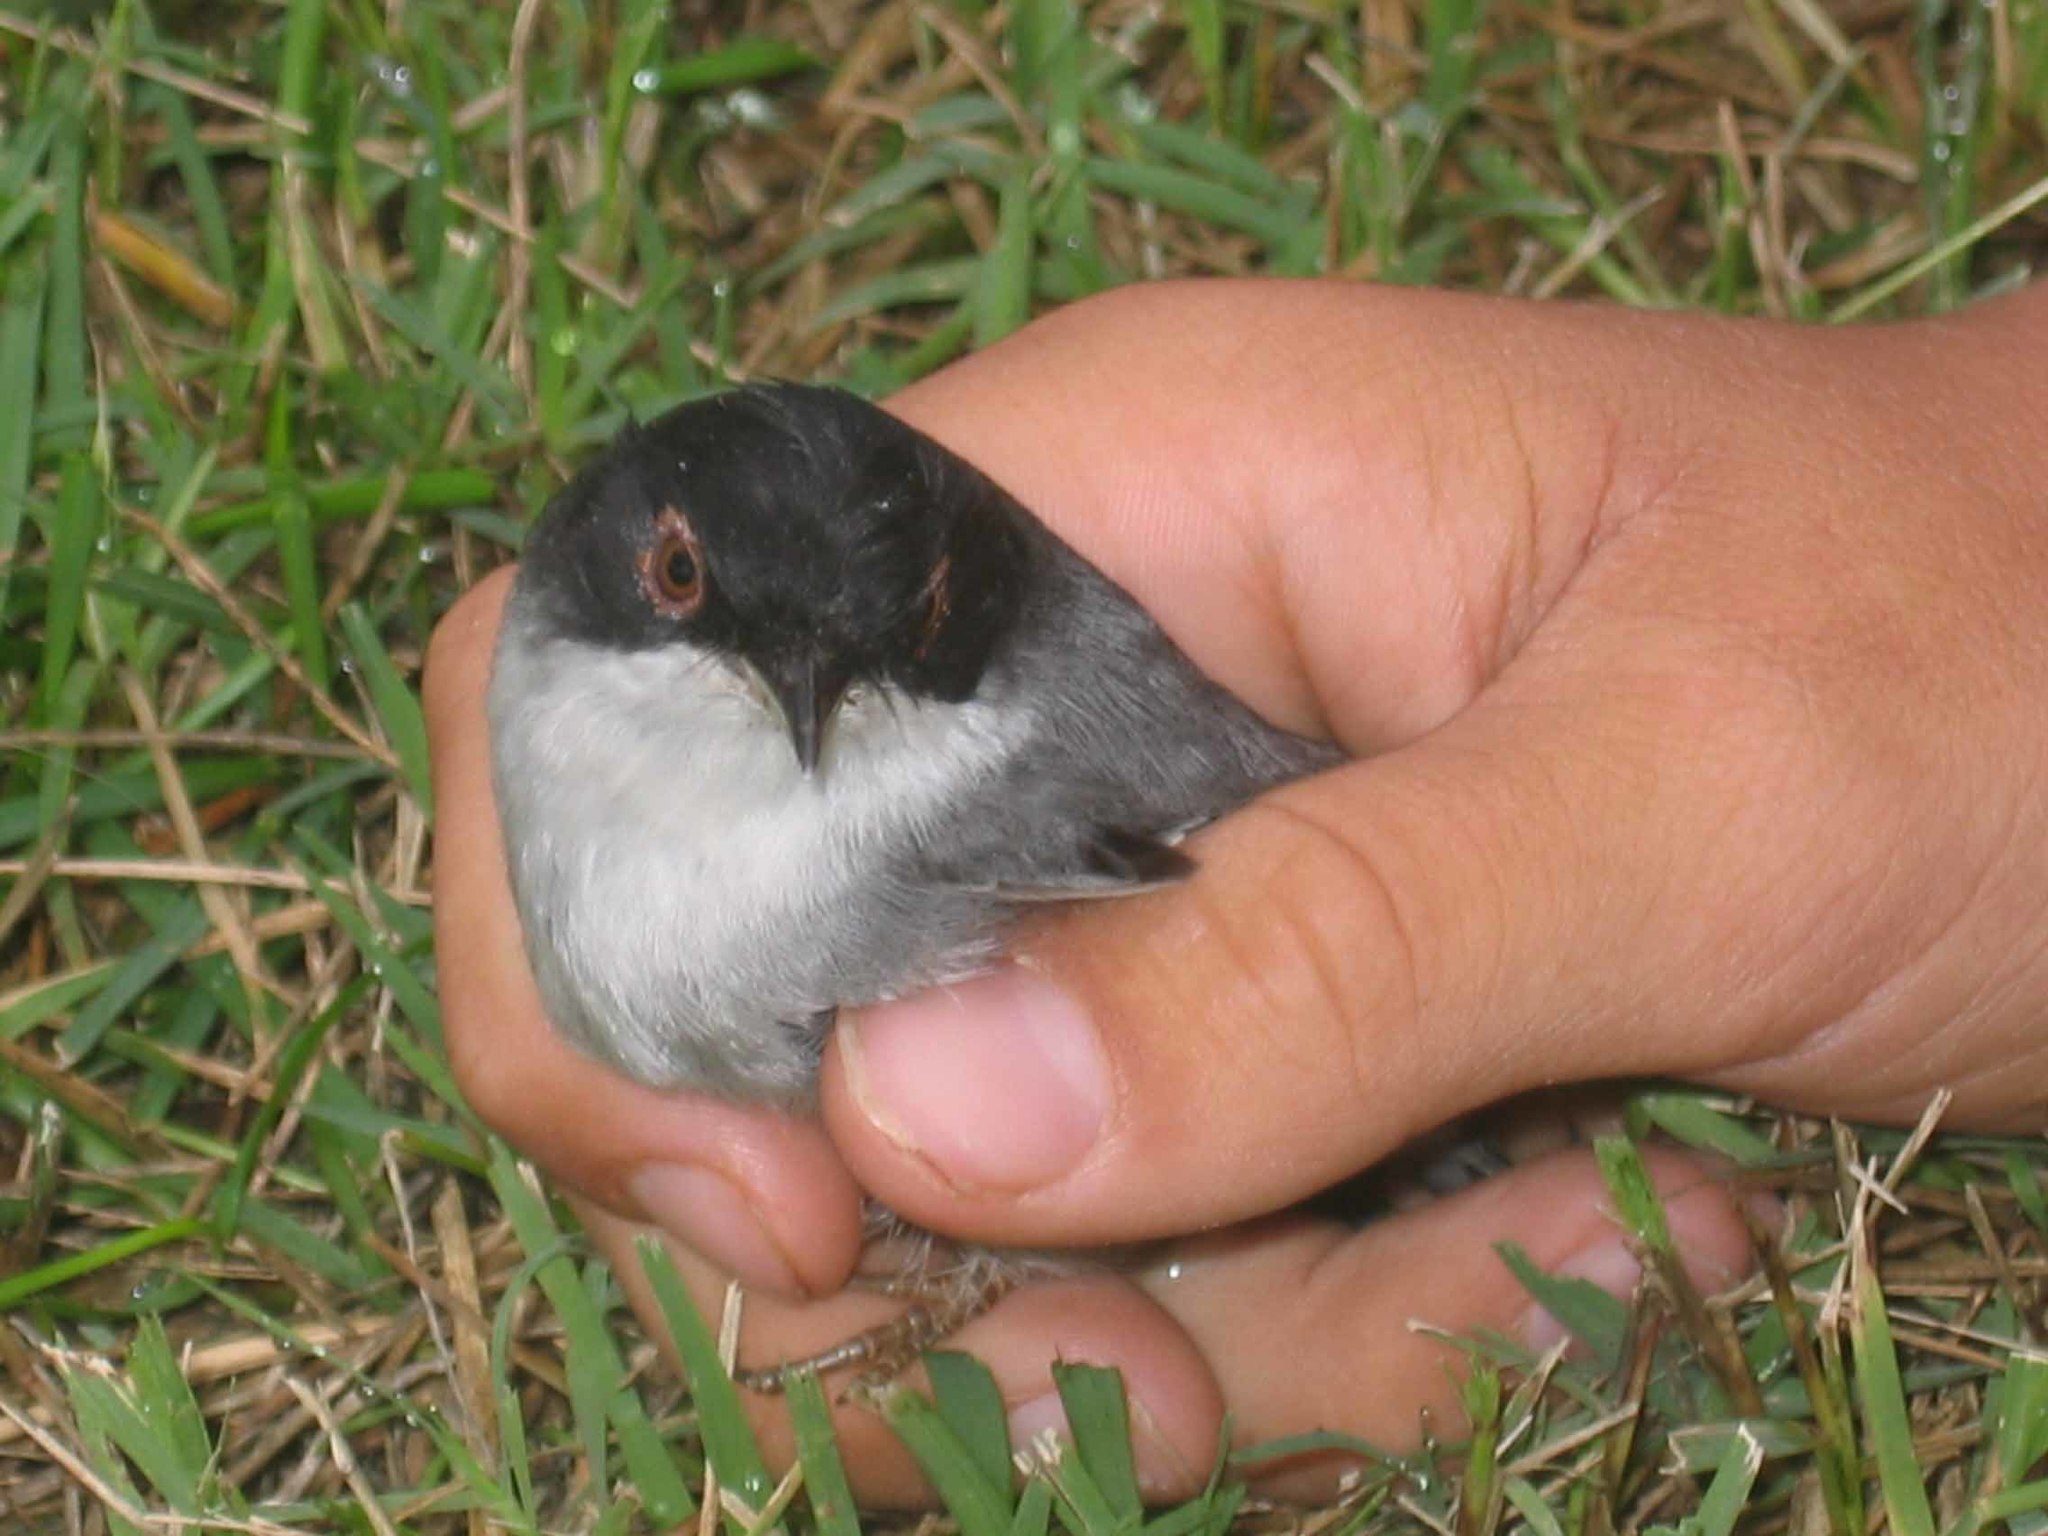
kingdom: Animalia
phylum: Chordata
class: Aves
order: Passeriformes
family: Sylviidae
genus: Curruca
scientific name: Curruca melanocephala
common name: Sardinian warbler
